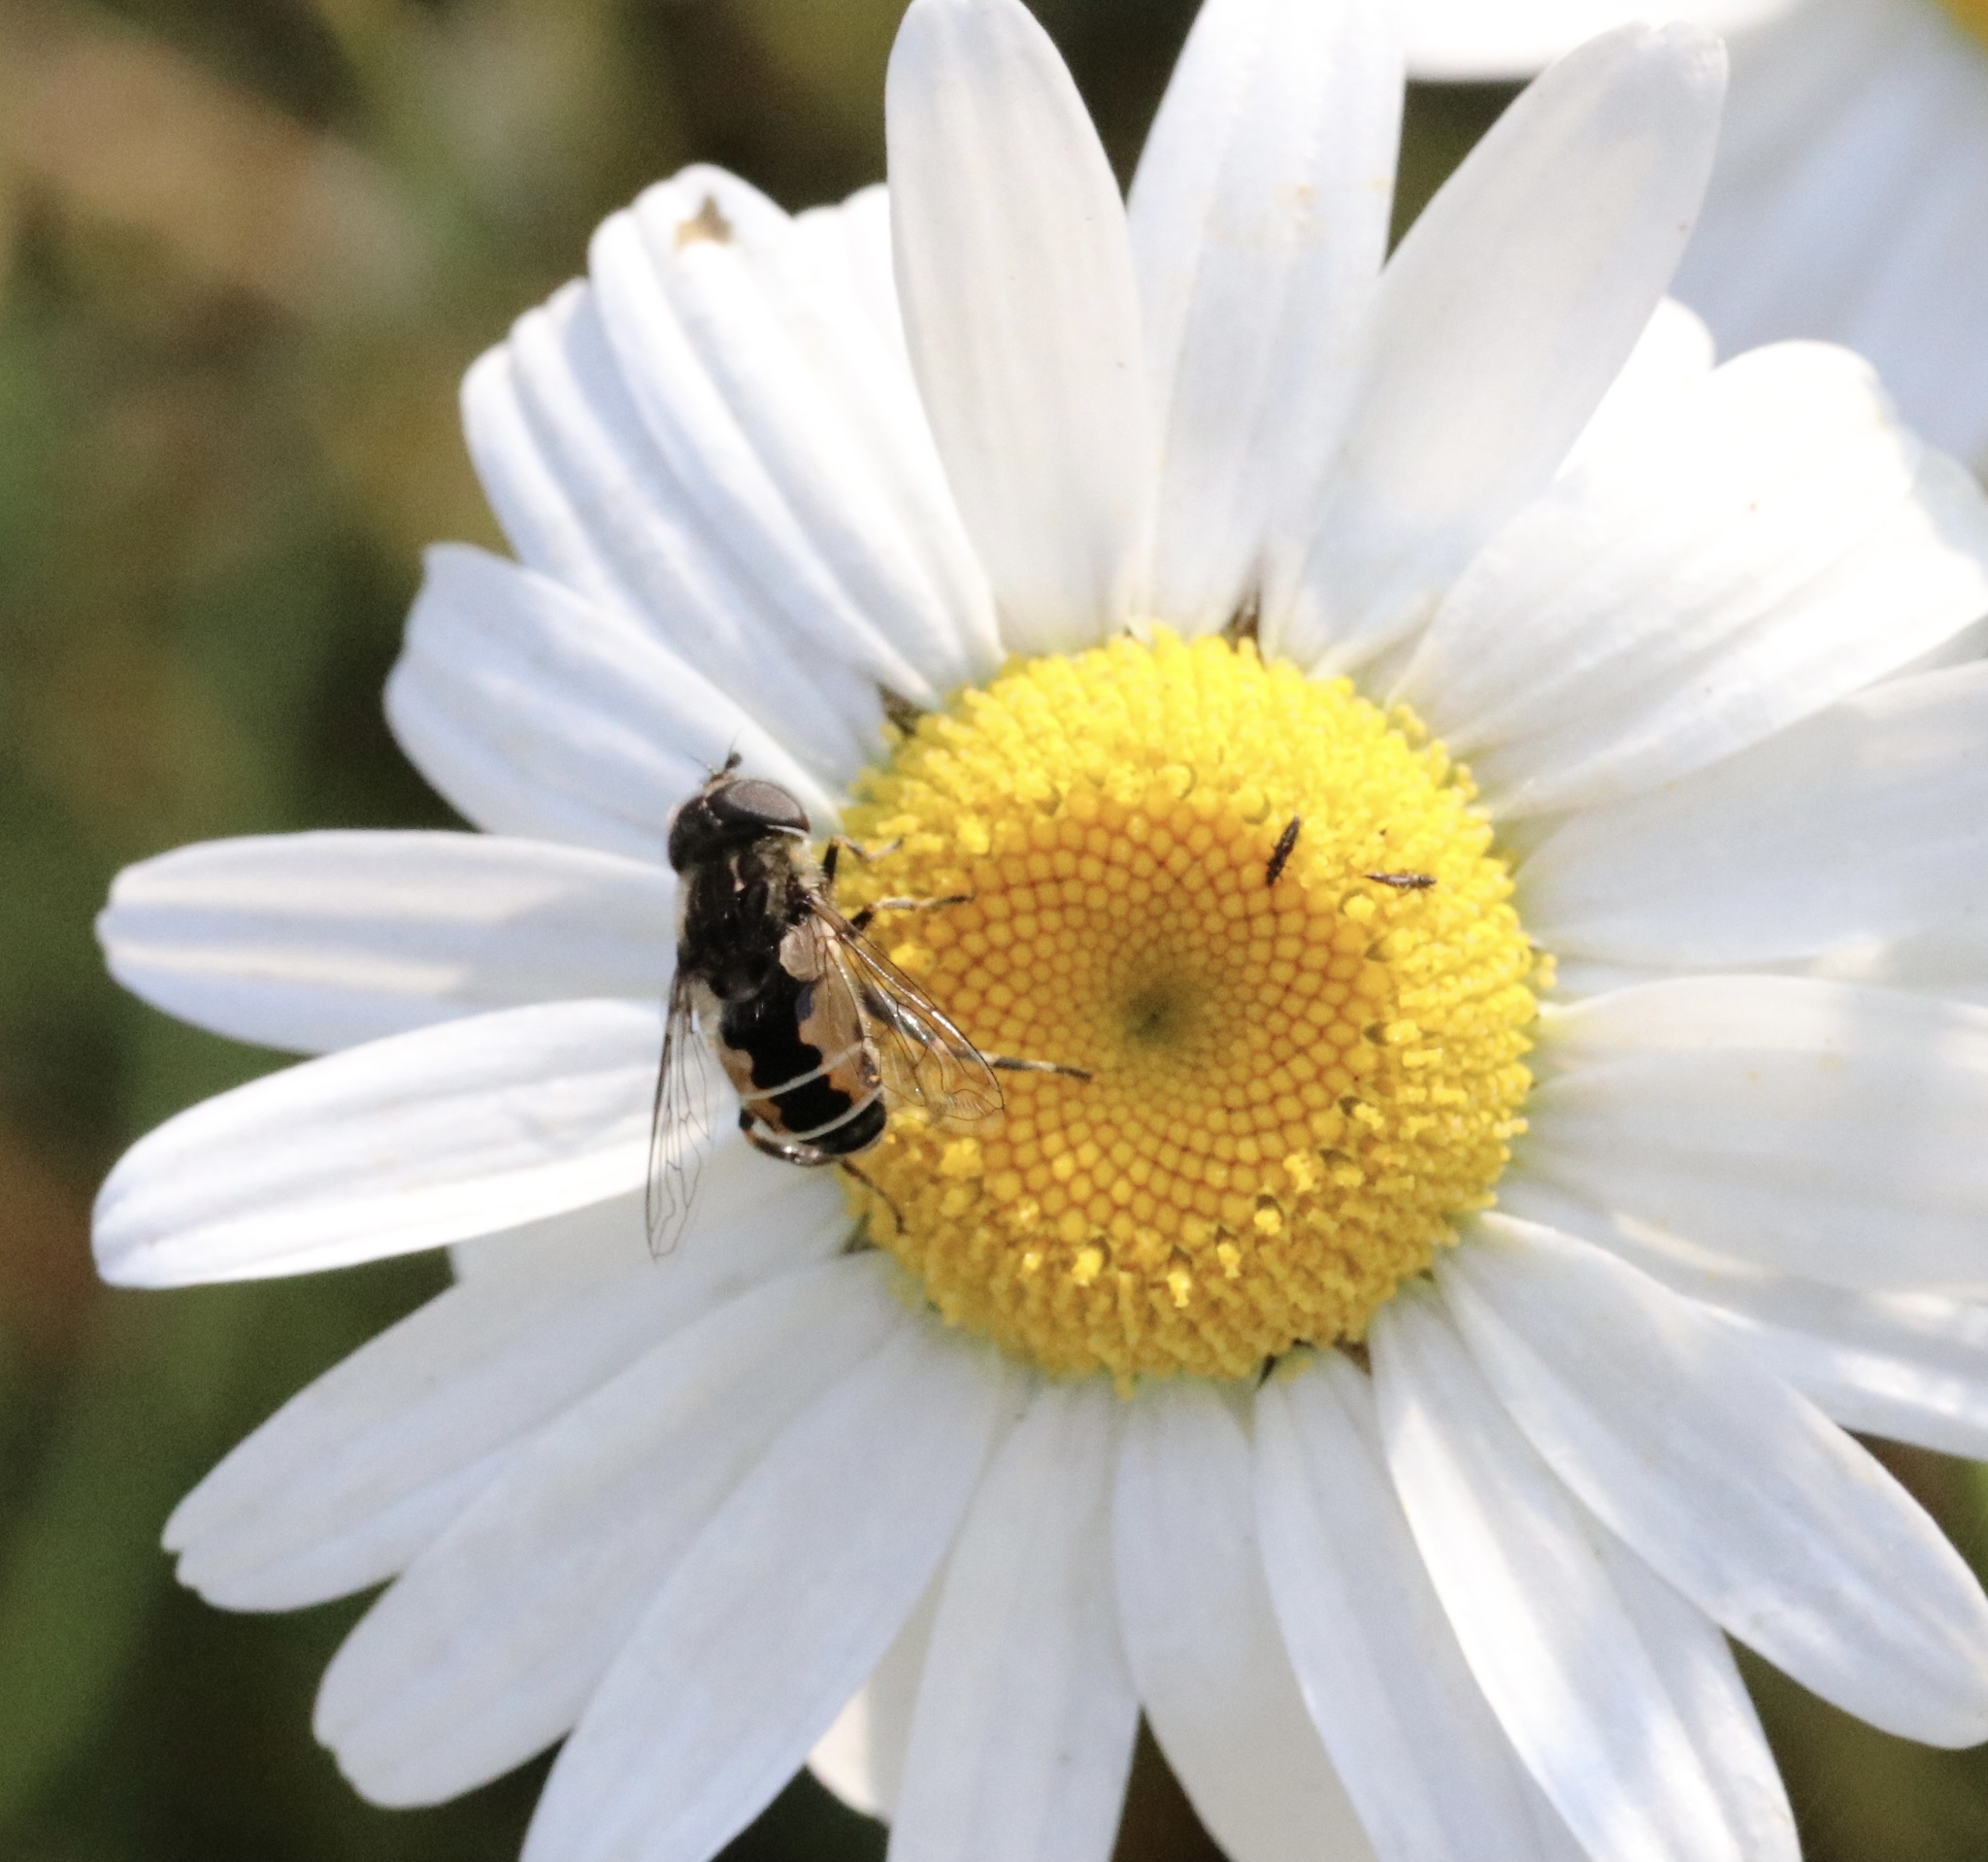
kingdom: Animalia
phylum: Arthropoda
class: Insecta
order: Diptera
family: Syrphidae
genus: Palpada
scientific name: Palpada meigenii
